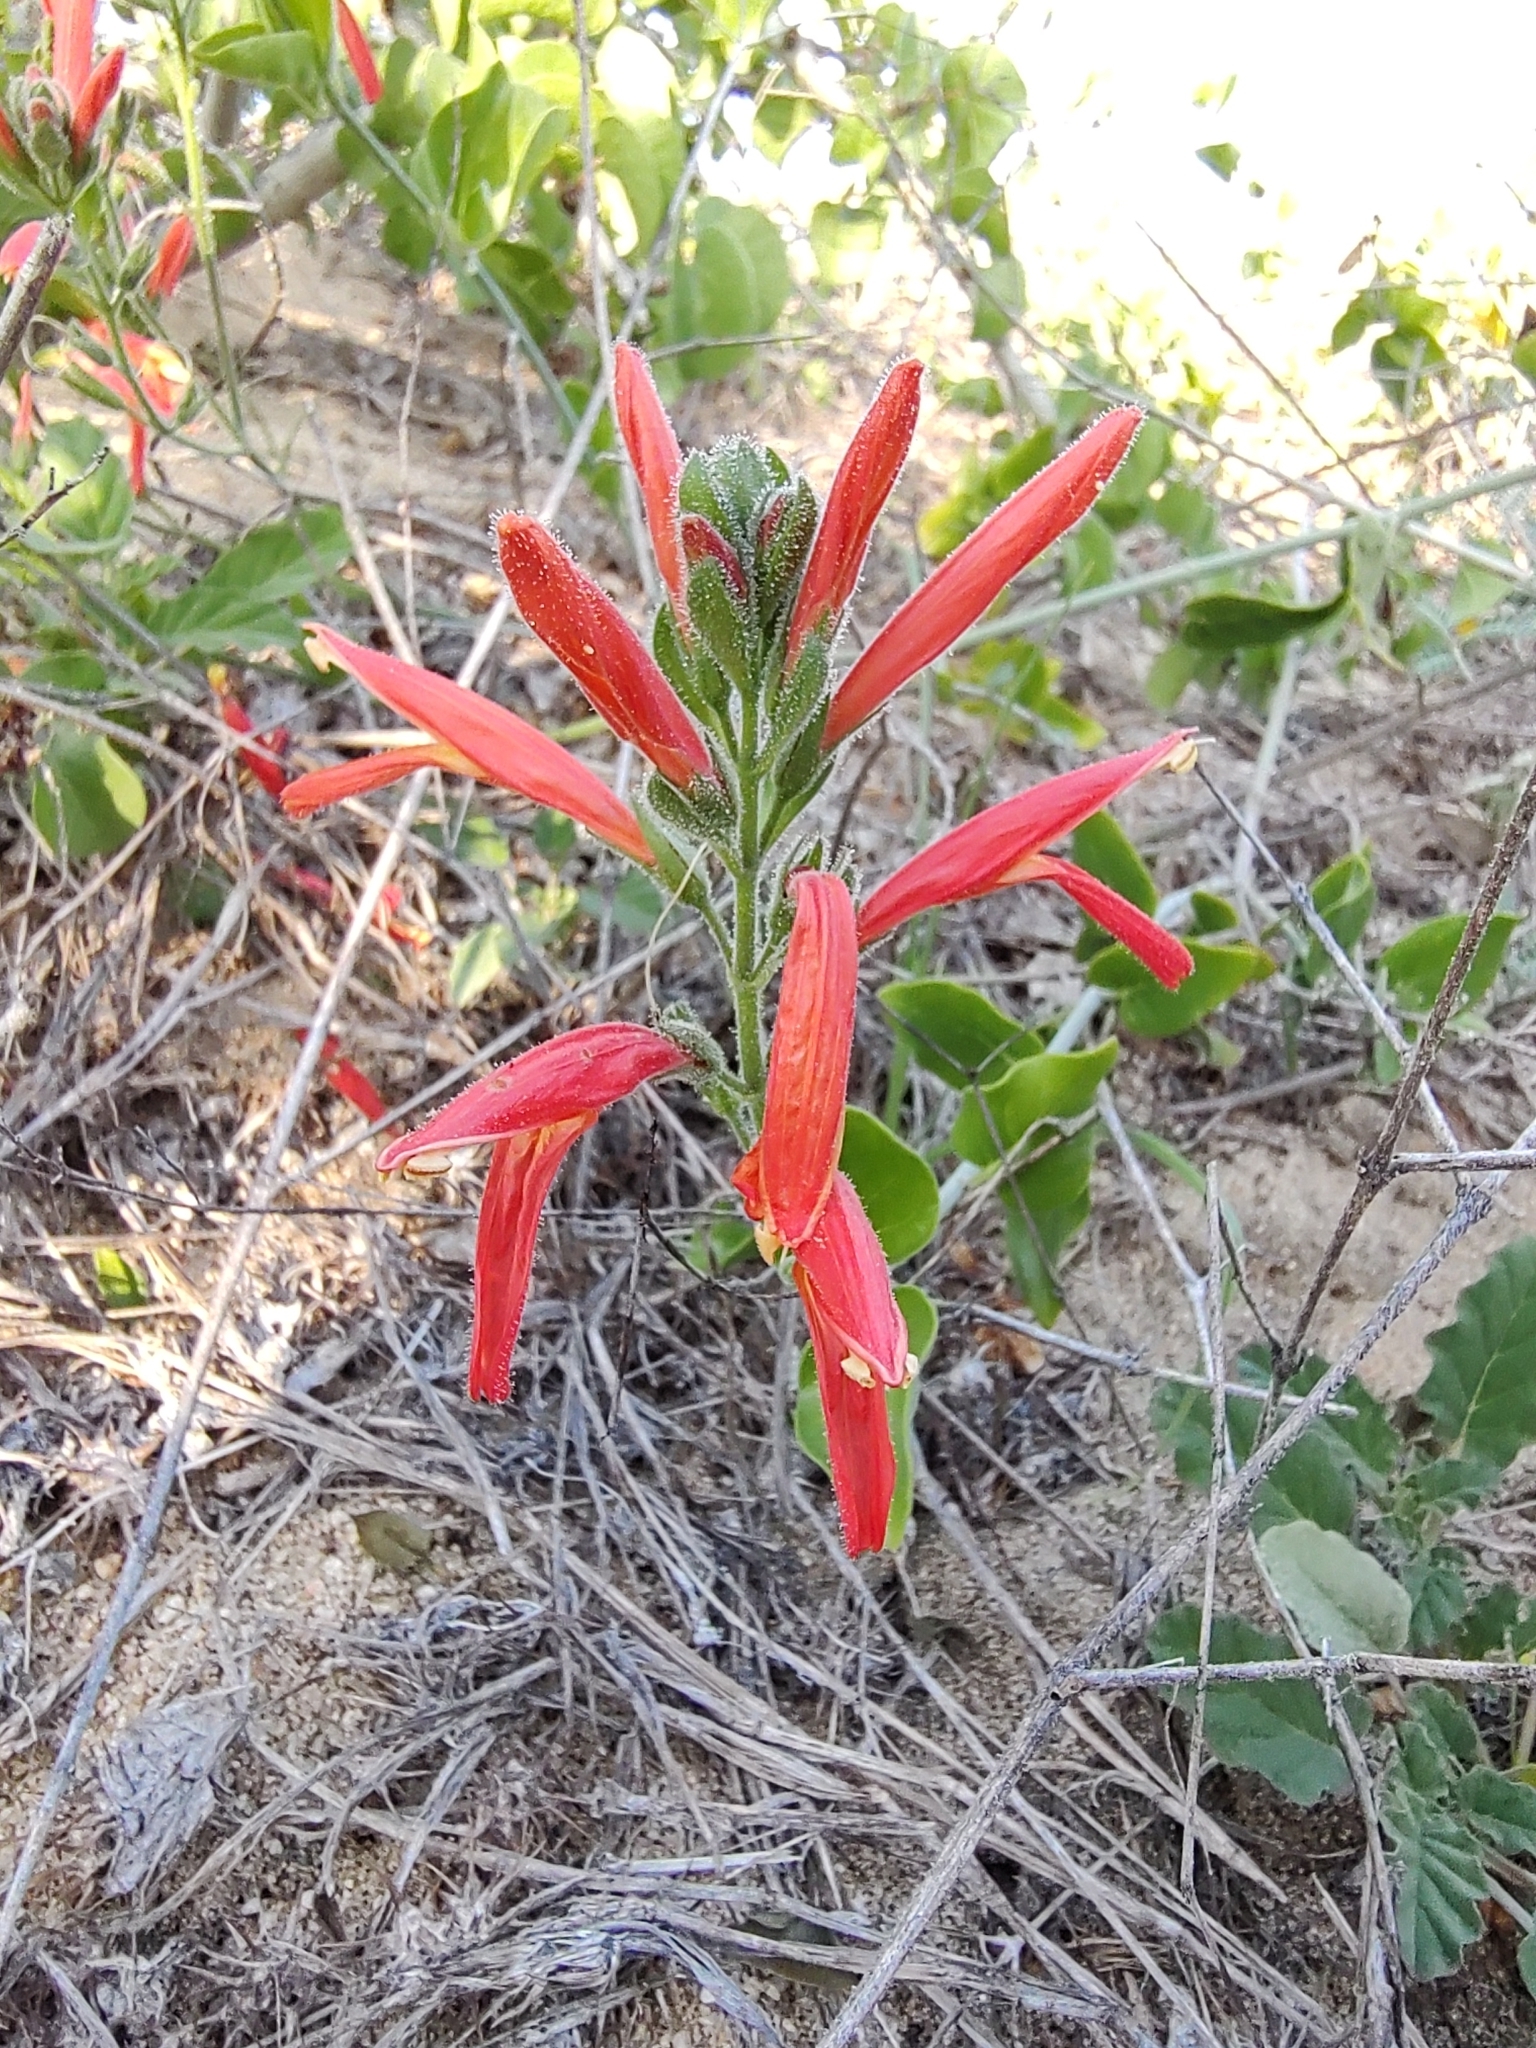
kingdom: Plantae
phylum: Tracheophyta
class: Magnoliopsida
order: Lamiales
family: Acanthaceae
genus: Justicia
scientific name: Justicia californica
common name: Chuparosa-honeysuckle
